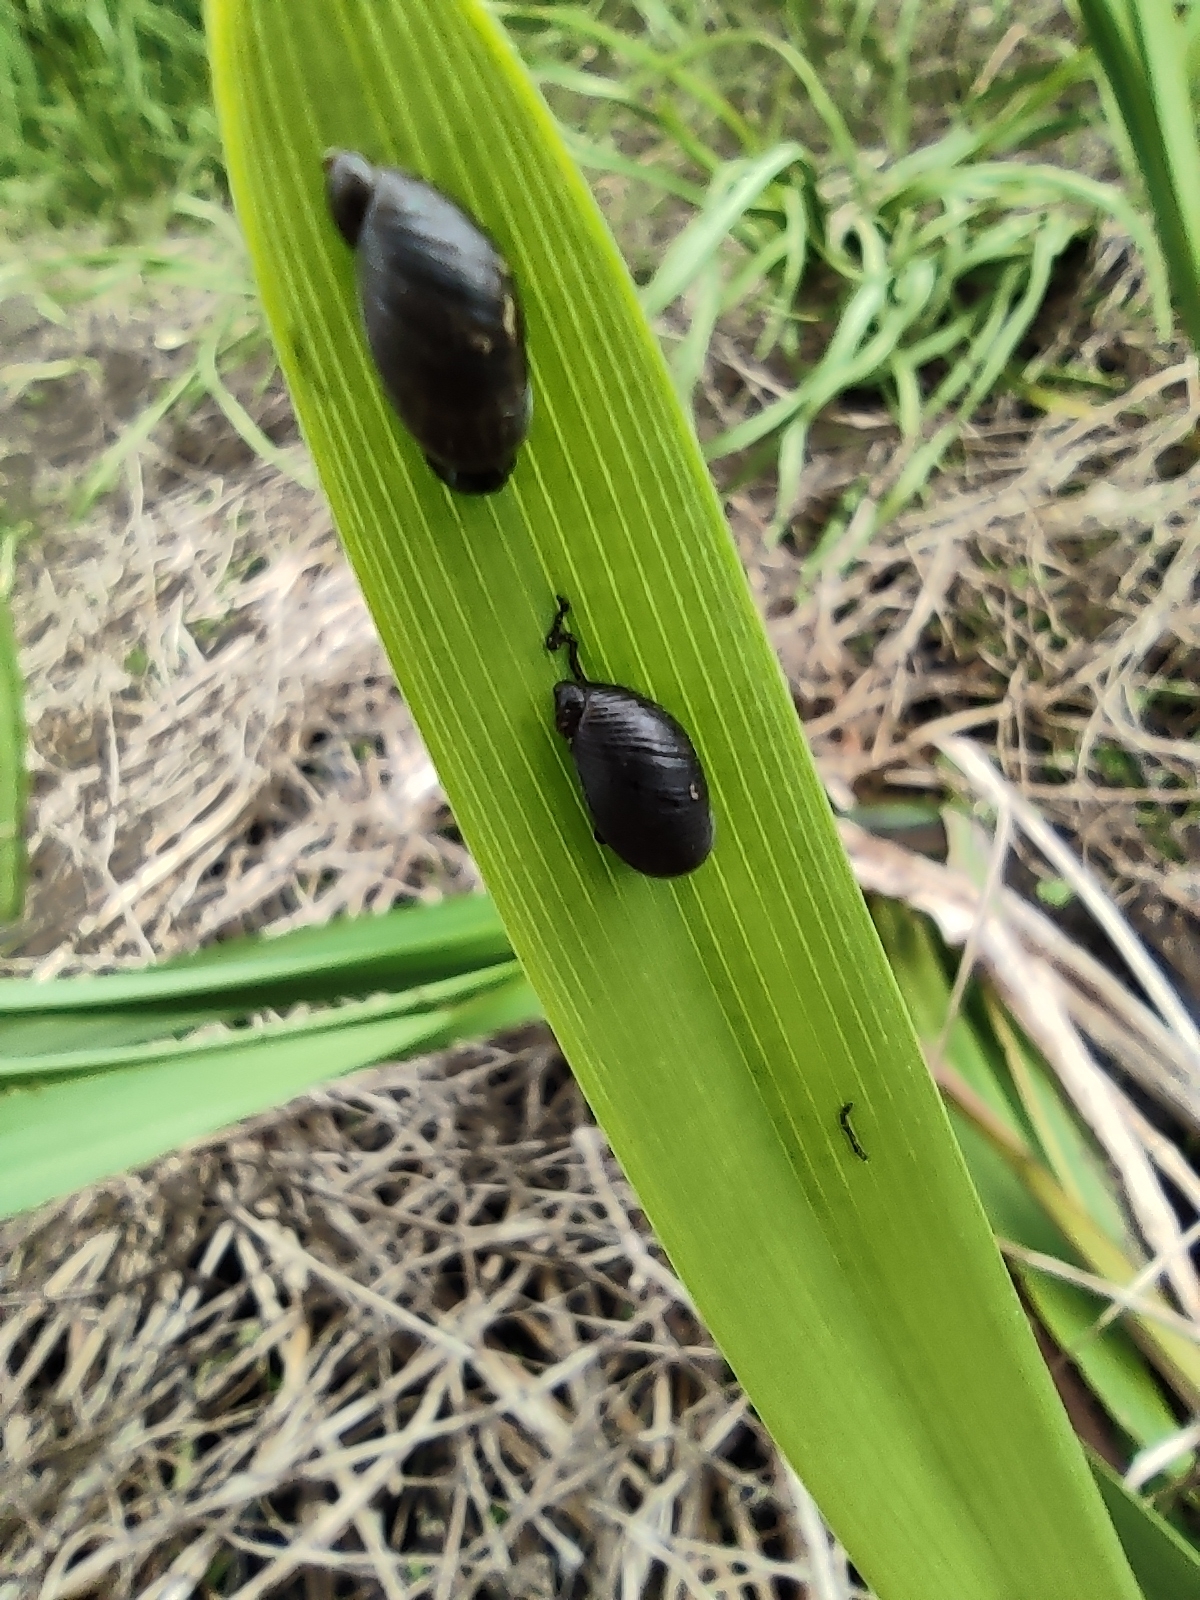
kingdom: Animalia
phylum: Mollusca
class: Gastropoda
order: Stylommatophora
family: Succineidae
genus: Succinea
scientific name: Succinea putris
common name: European ambersnail
